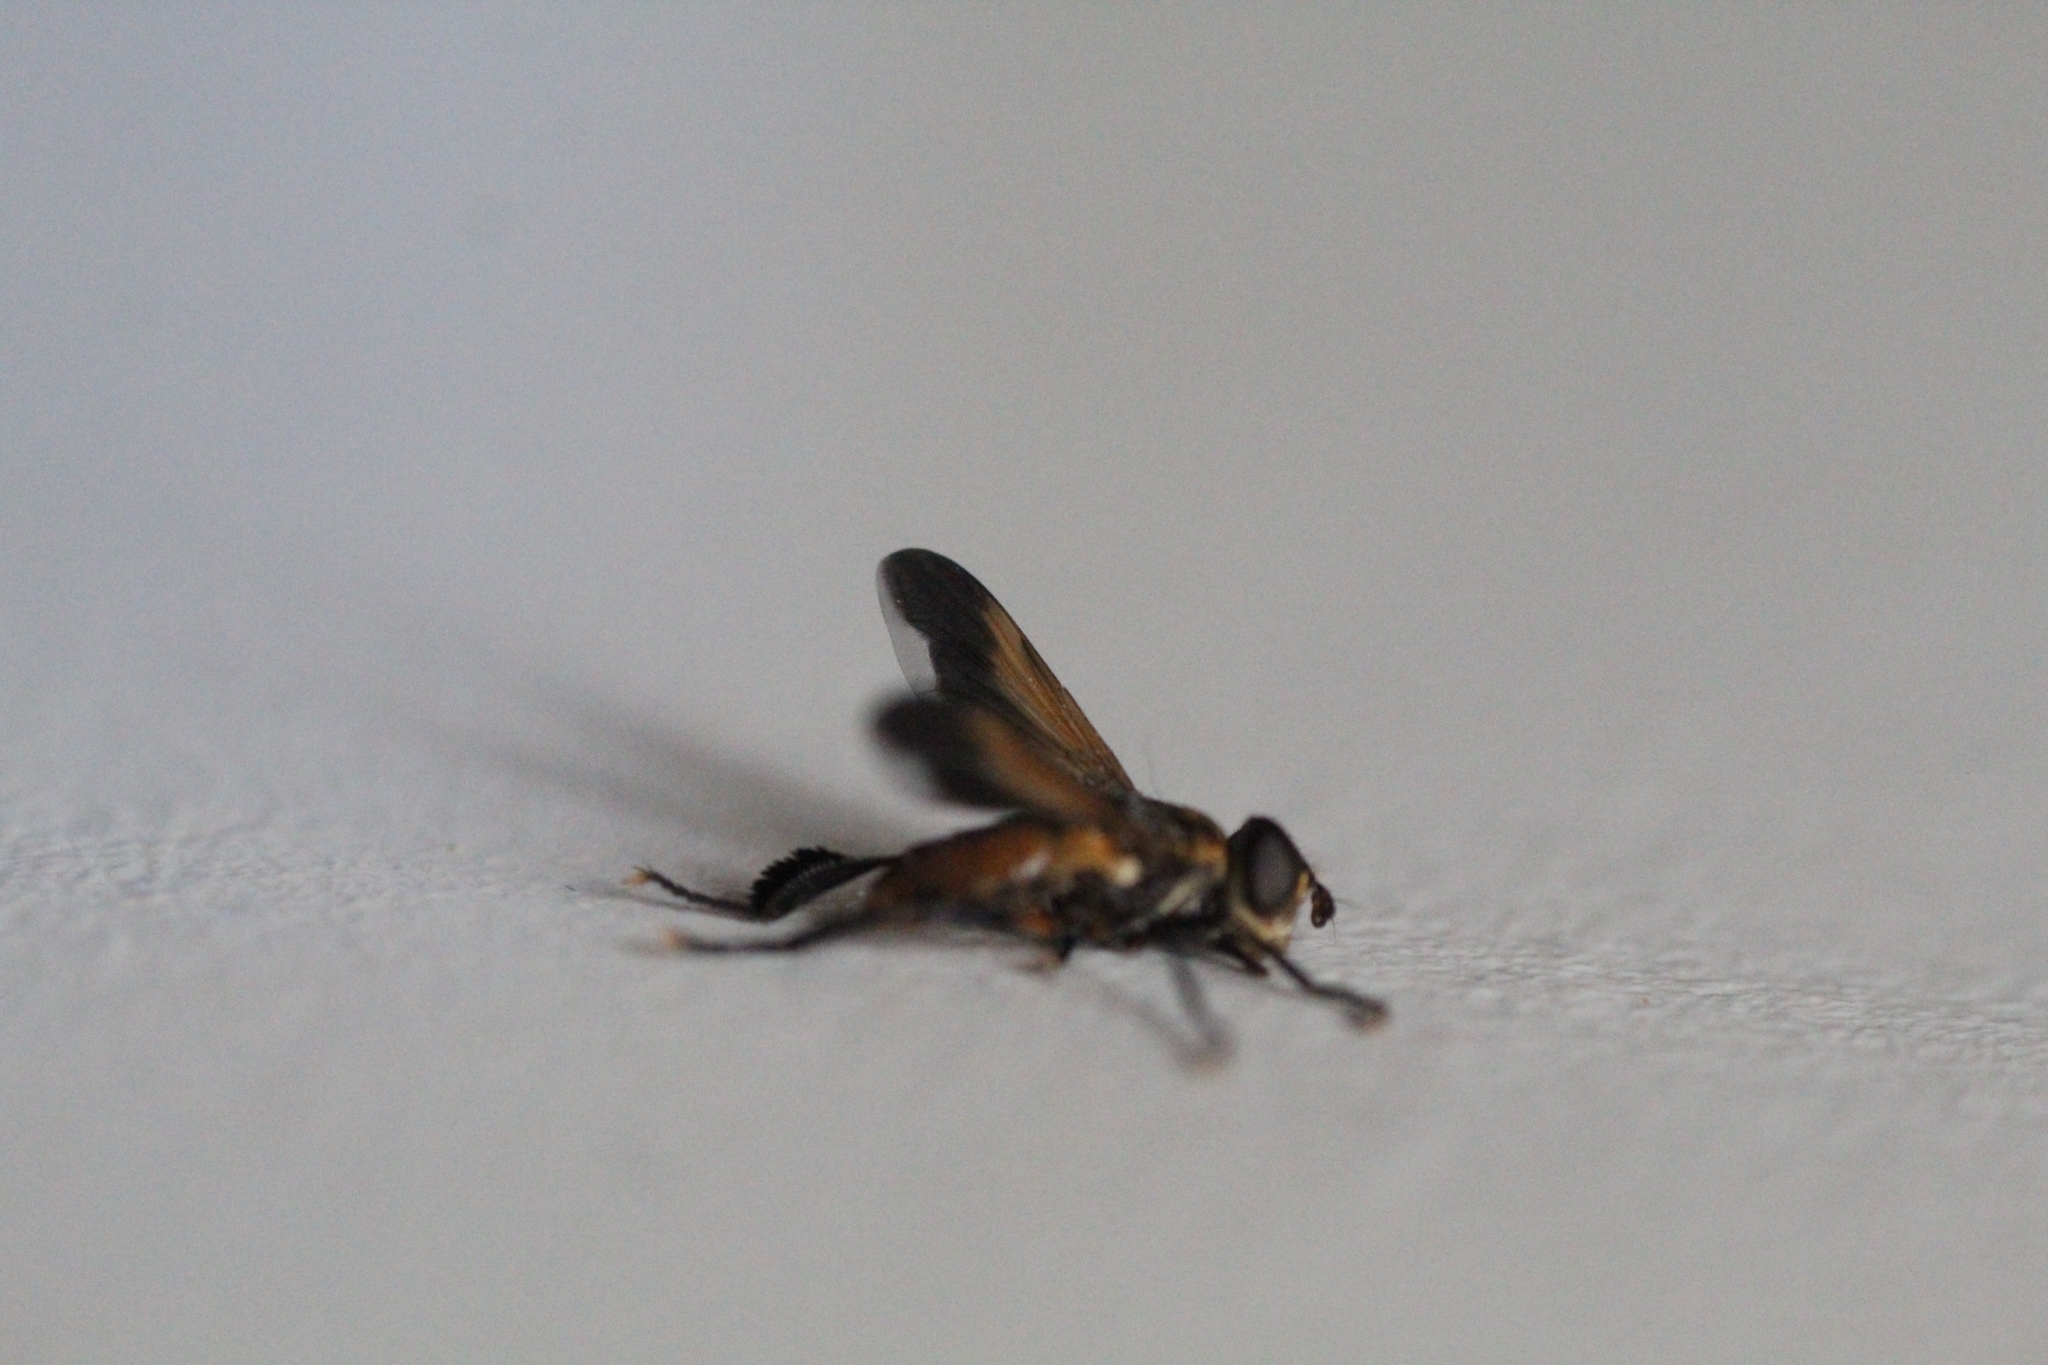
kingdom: Animalia
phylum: Arthropoda
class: Insecta
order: Diptera
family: Tachinidae
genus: Trichopoda
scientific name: Trichopoda pictipennis
